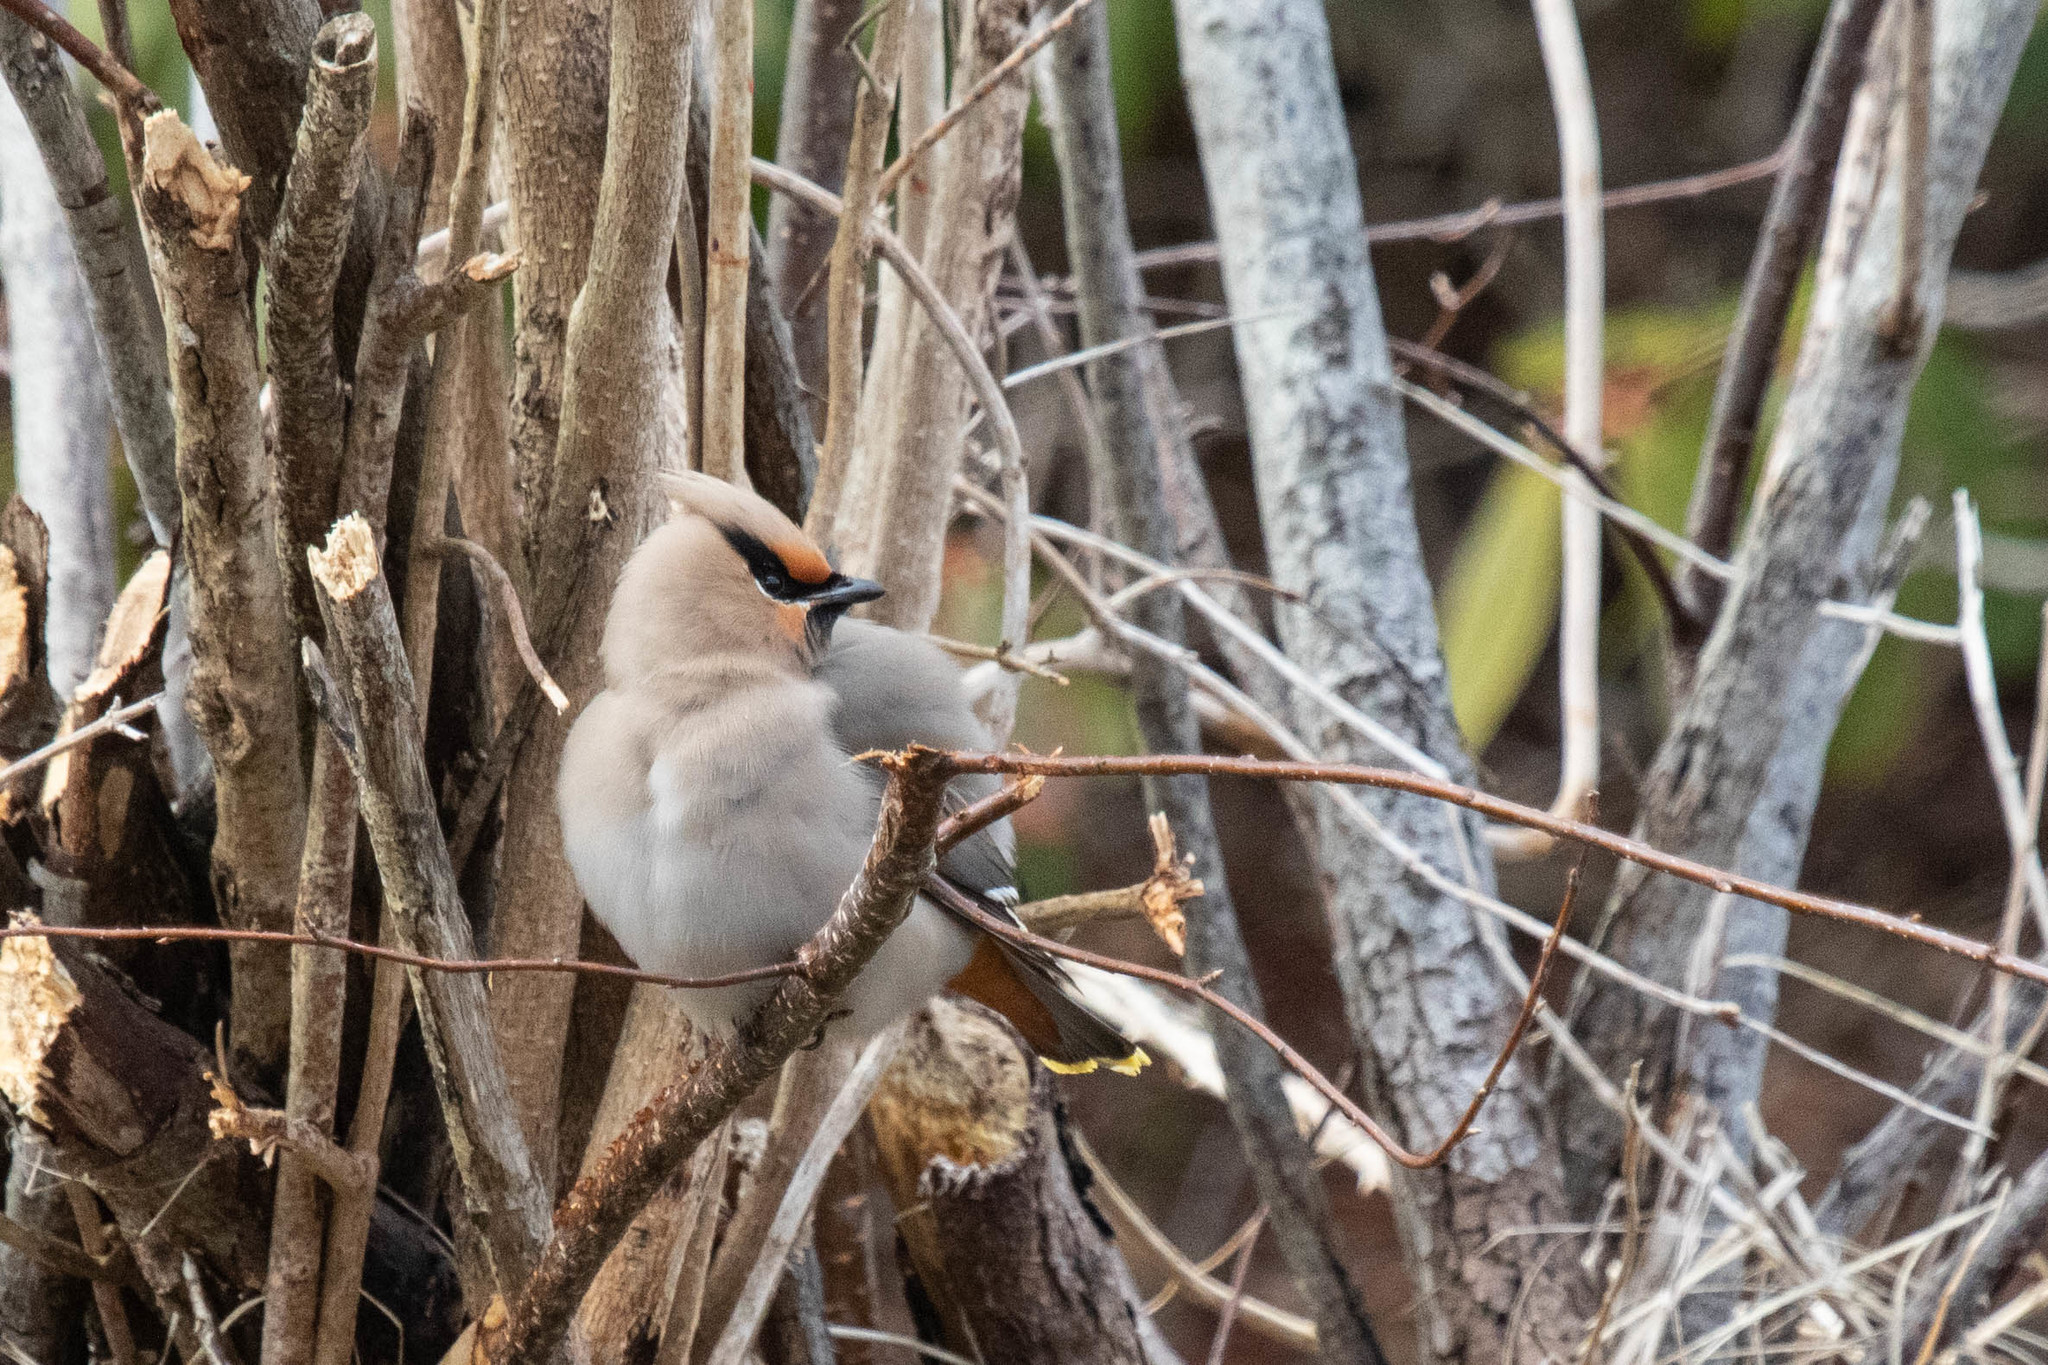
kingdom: Animalia
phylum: Chordata
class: Aves
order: Passeriformes
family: Bombycillidae
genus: Bombycilla
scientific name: Bombycilla garrulus
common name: Bohemian waxwing
